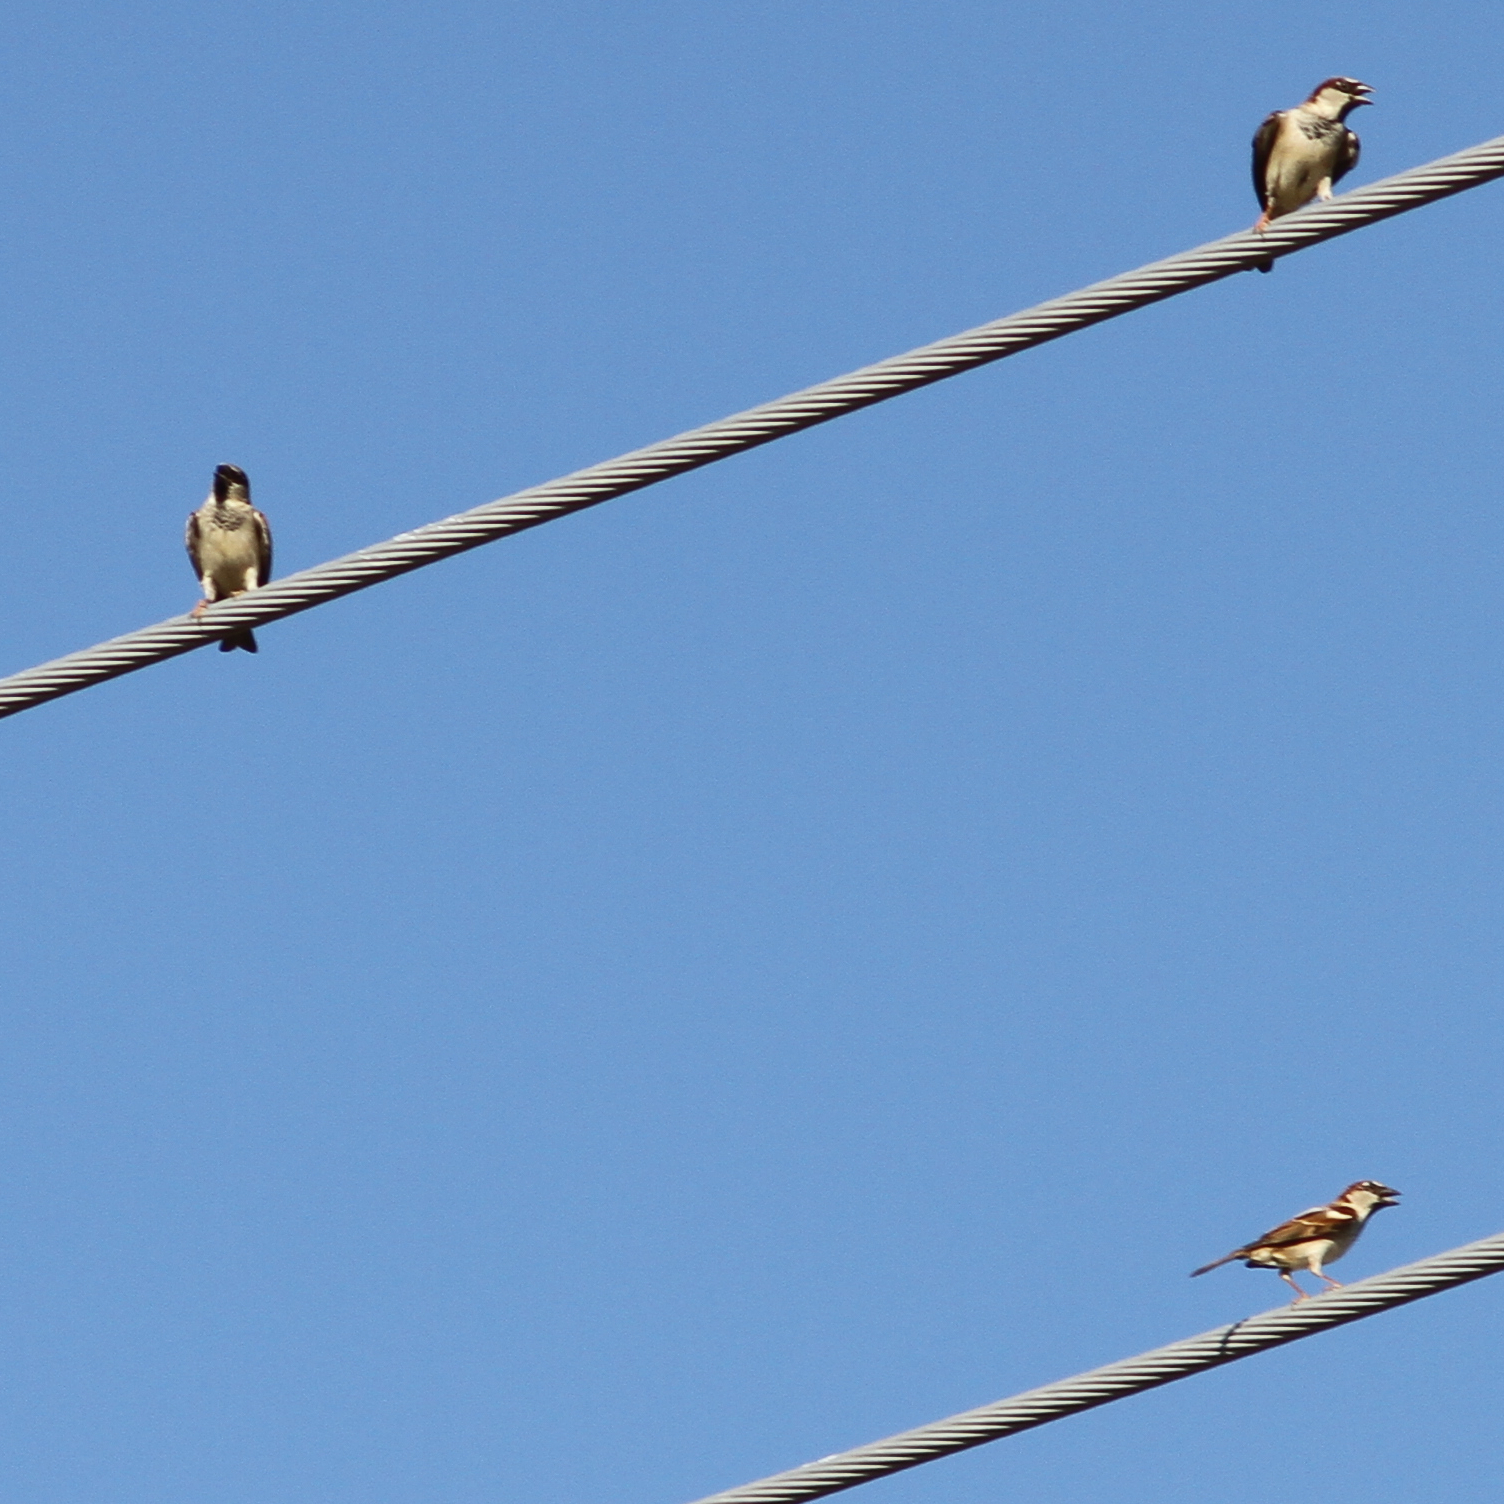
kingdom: Animalia
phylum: Chordata
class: Aves
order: Passeriformes
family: Passeridae
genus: Passer
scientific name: Passer domesticus
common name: House sparrow
